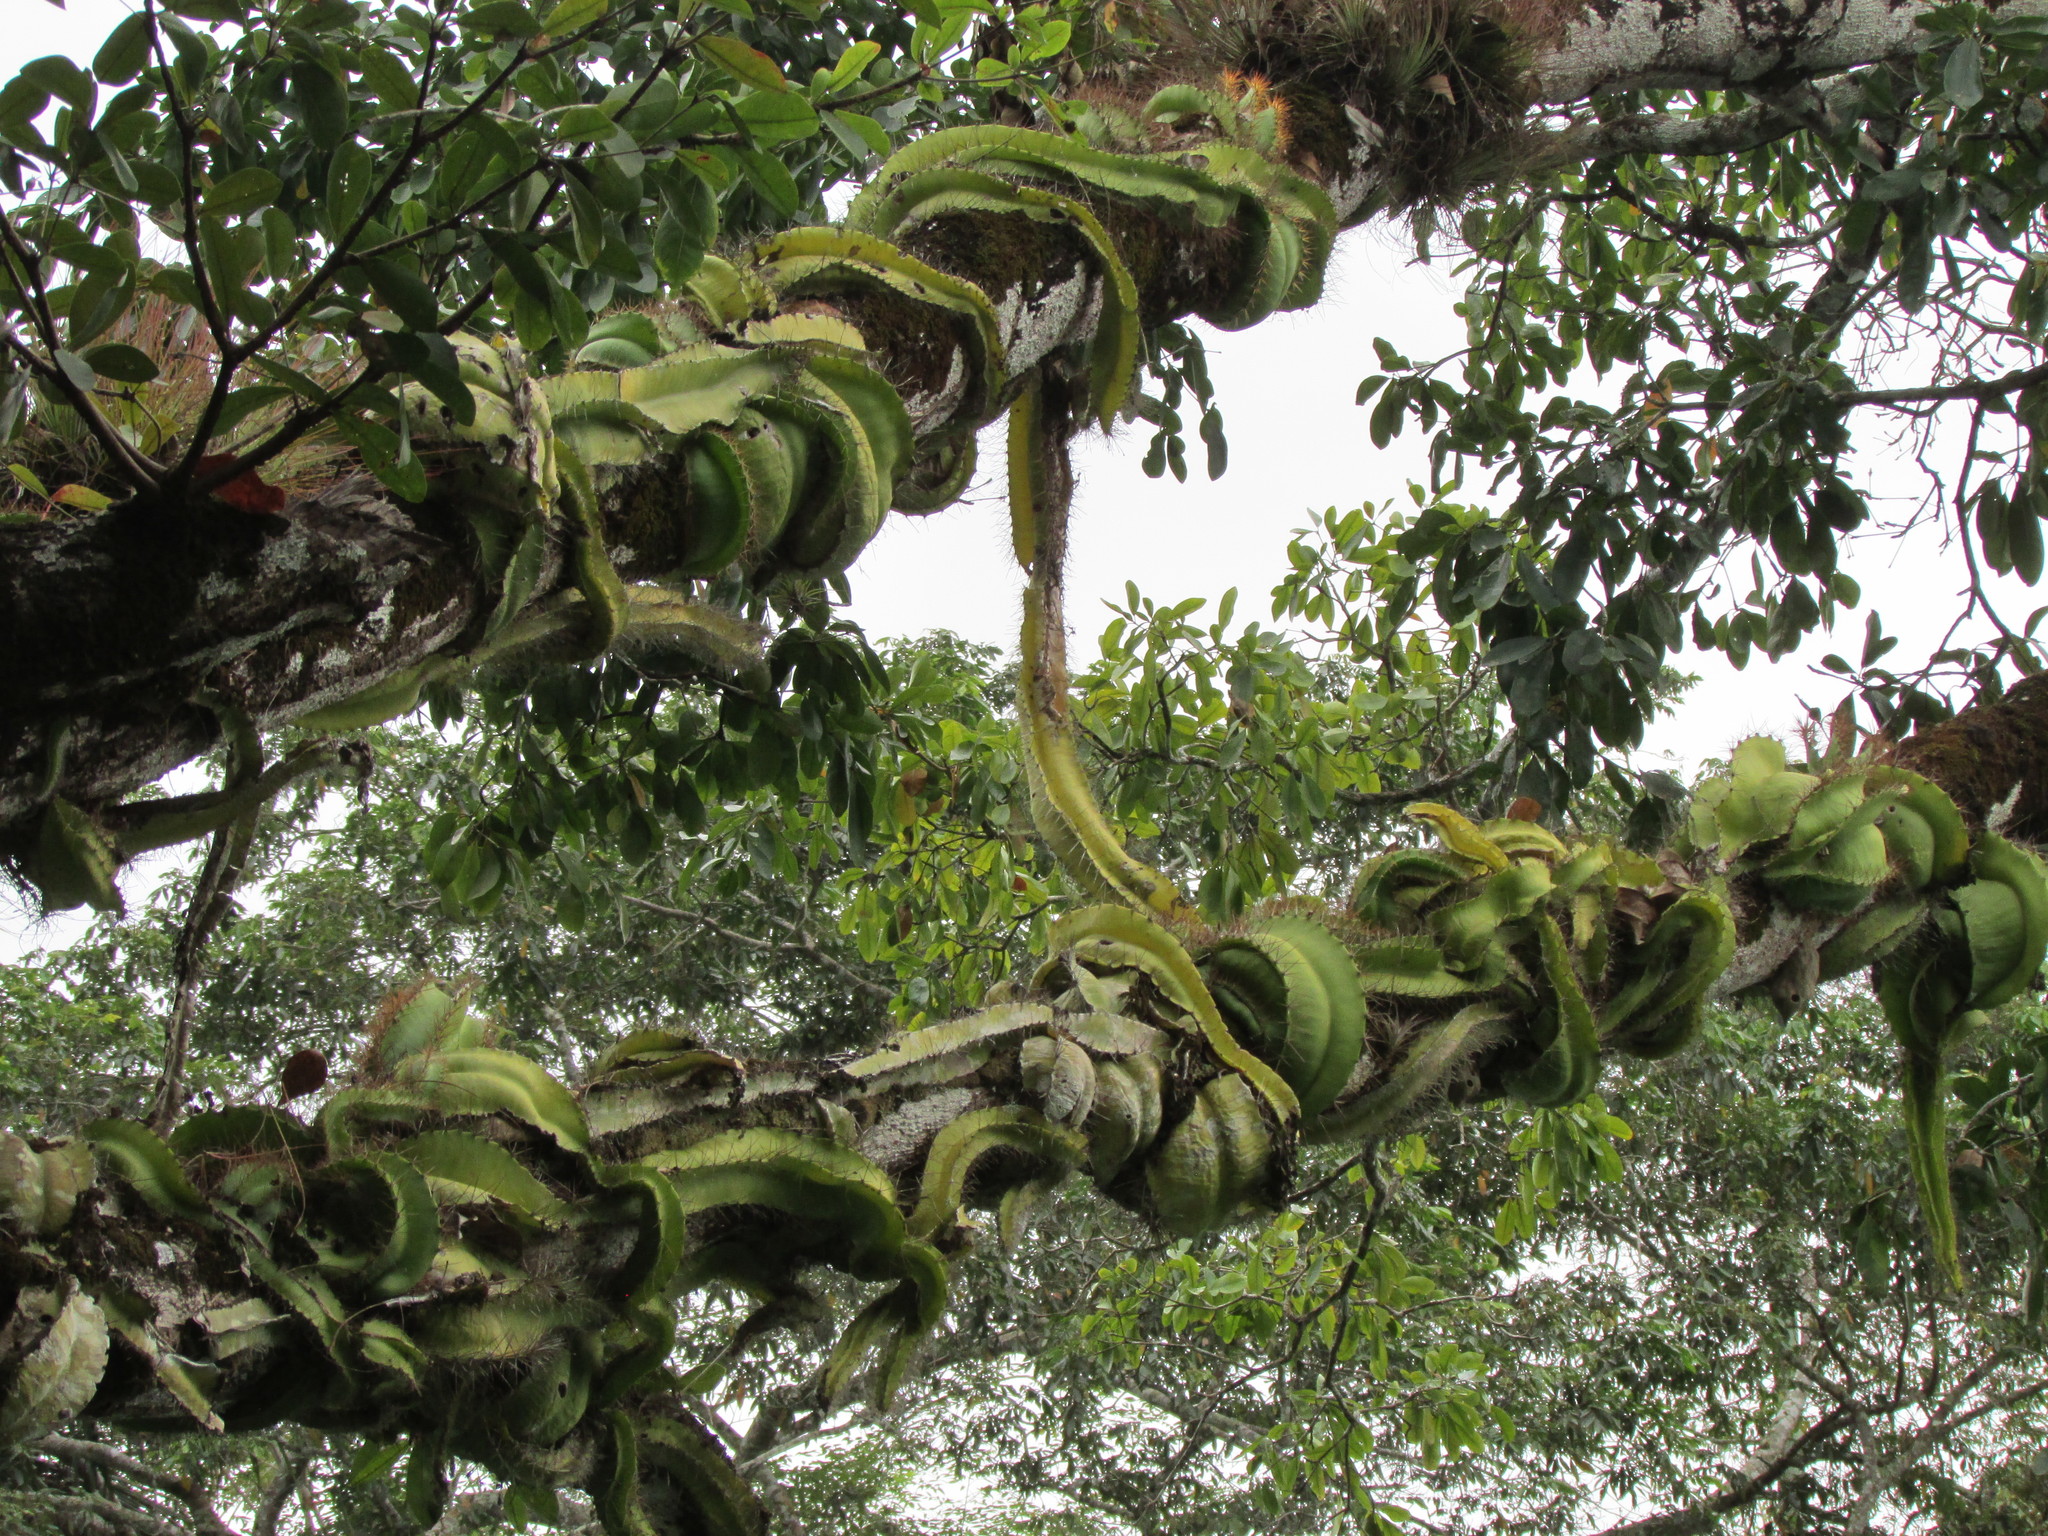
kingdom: Plantae
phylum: Tracheophyta
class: Magnoliopsida
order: Caryophyllales
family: Cactaceae
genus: Deamia
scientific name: Deamia testudo
